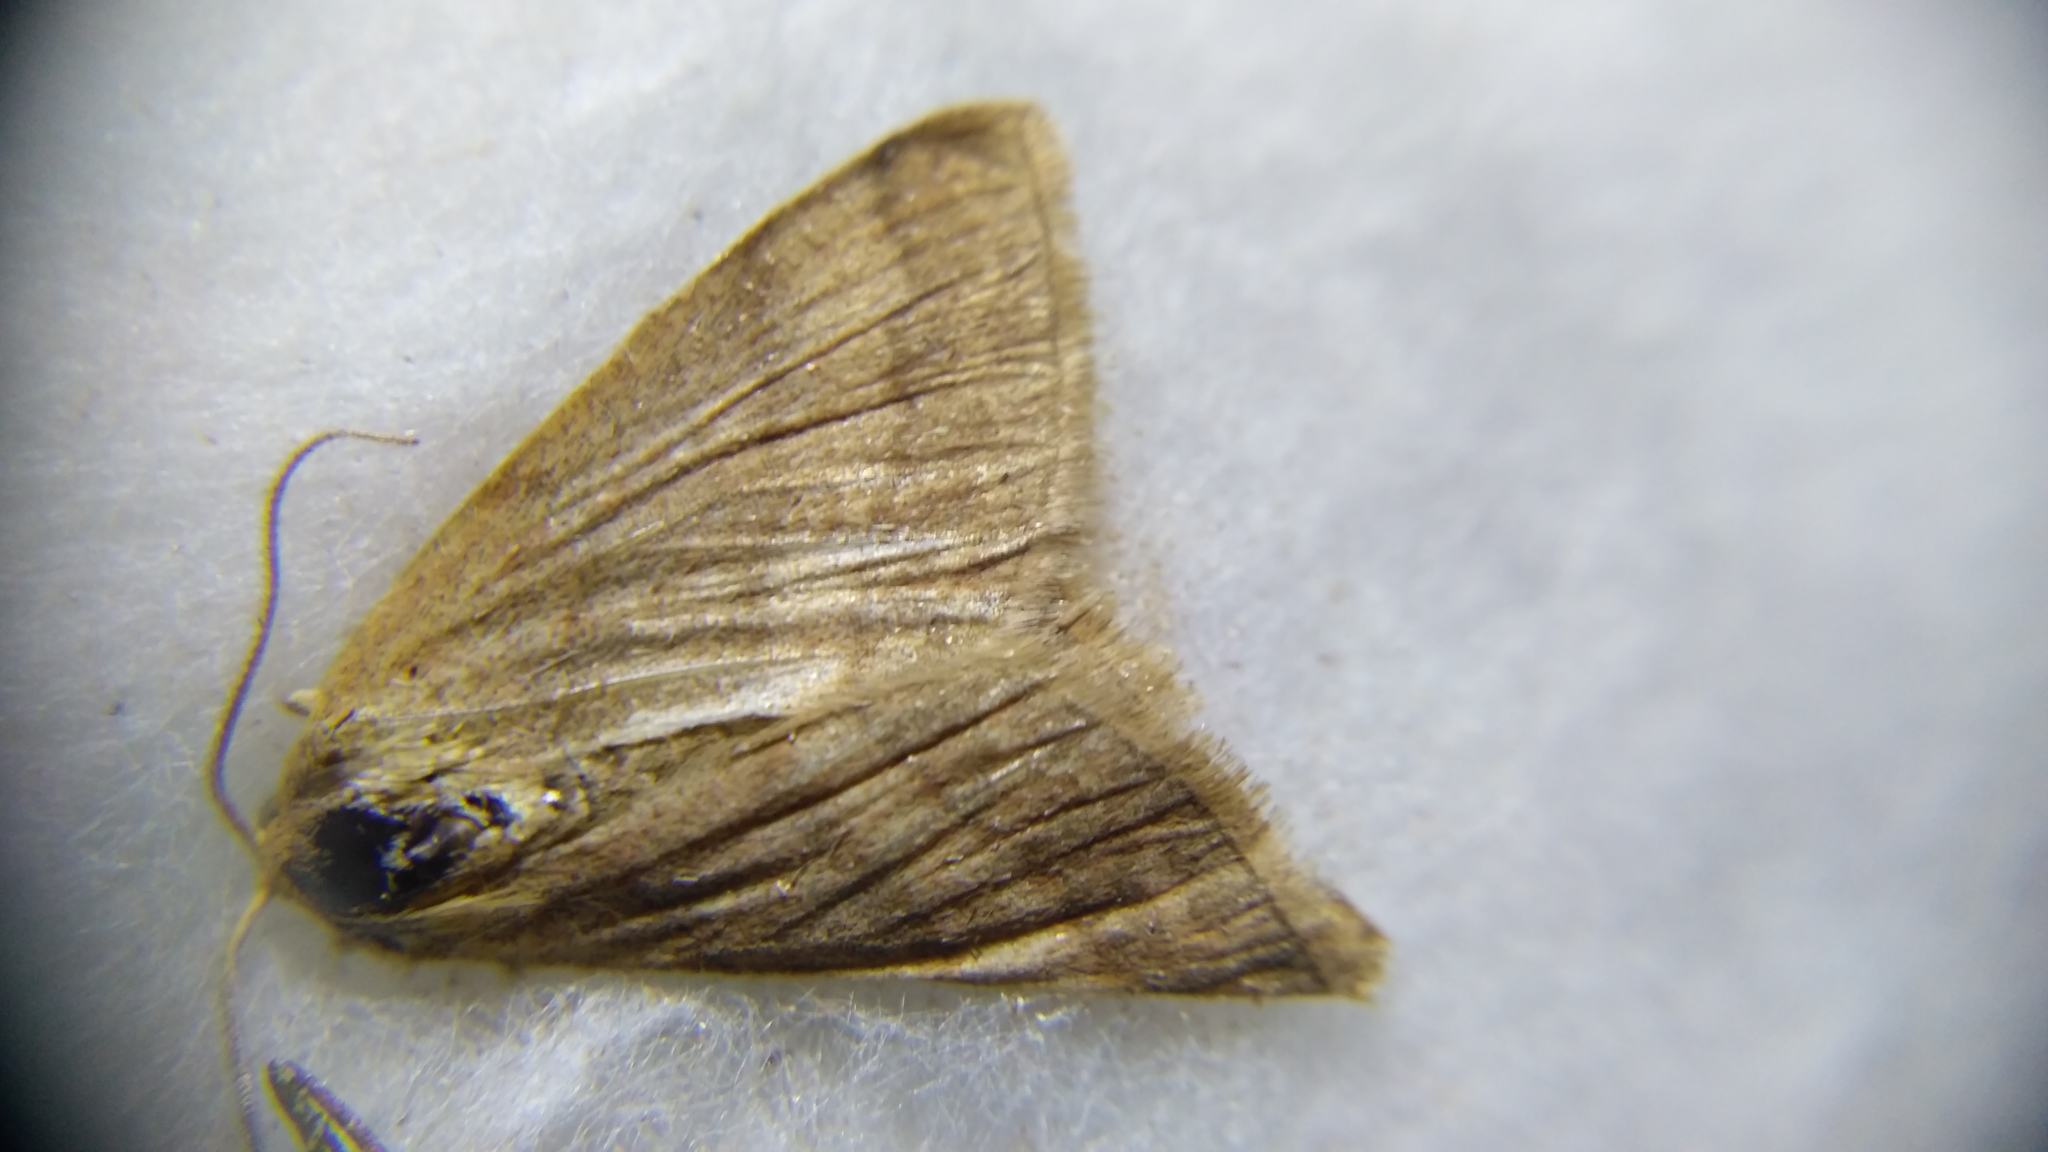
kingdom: Animalia
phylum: Arthropoda
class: Insecta
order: Lepidoptera
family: Geometridae
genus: Scopula
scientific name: Scopula rubiginata
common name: Tawny wave
